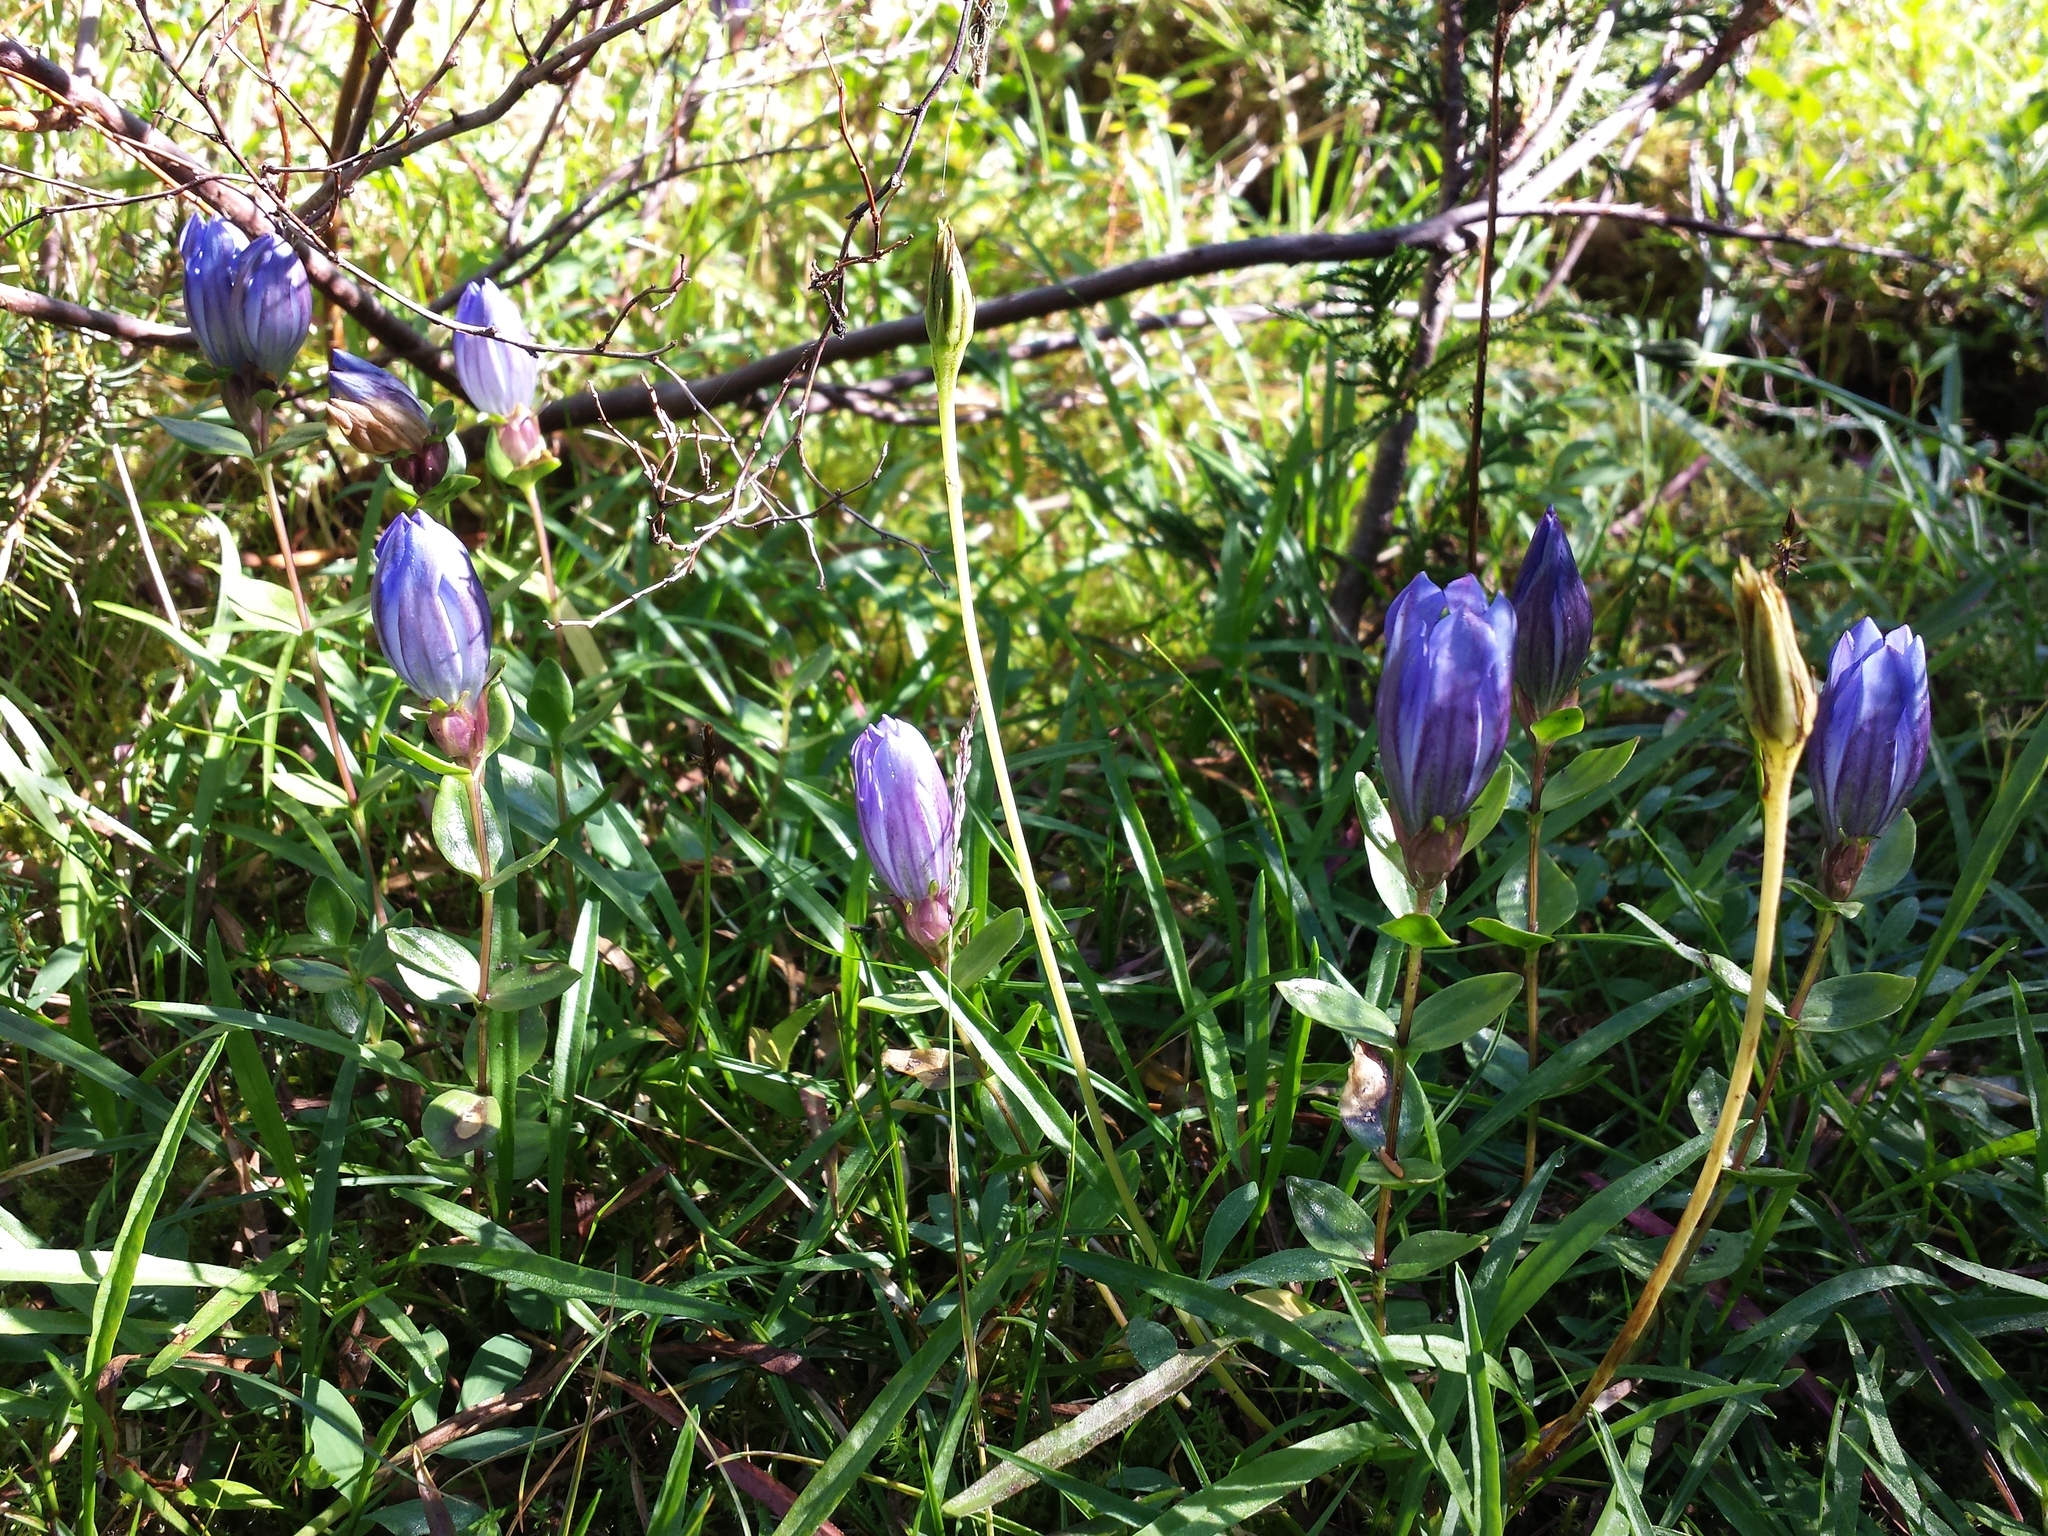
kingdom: Plantae
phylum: Tracheophyta
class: Magnoliopsida
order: Gentianales
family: Gentianaceae
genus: Gentiana
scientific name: Gentiana calycosa
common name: Rainier pleated gentian
